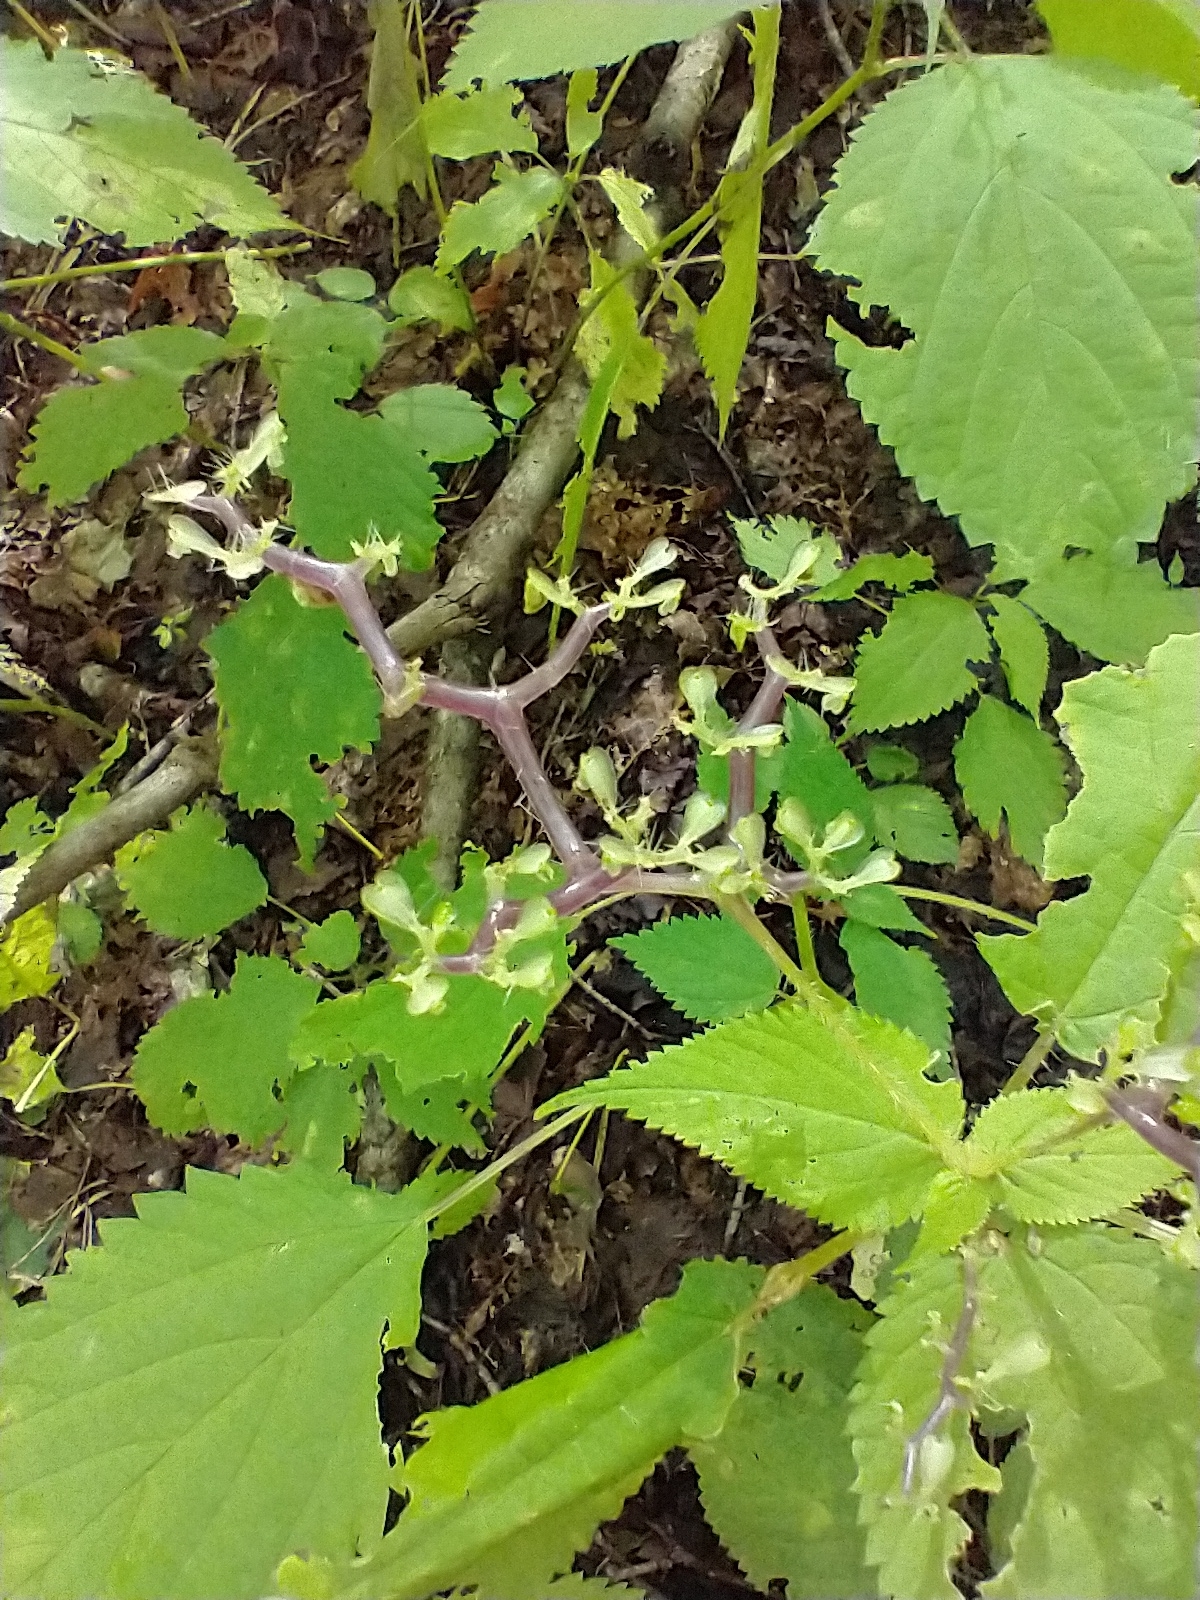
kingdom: Plantae
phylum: Tracheophyta
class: Magnoliopsida
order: Rosales
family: Urticaceae
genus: Laportea
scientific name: Laportea canadensis
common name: Canada nettle
